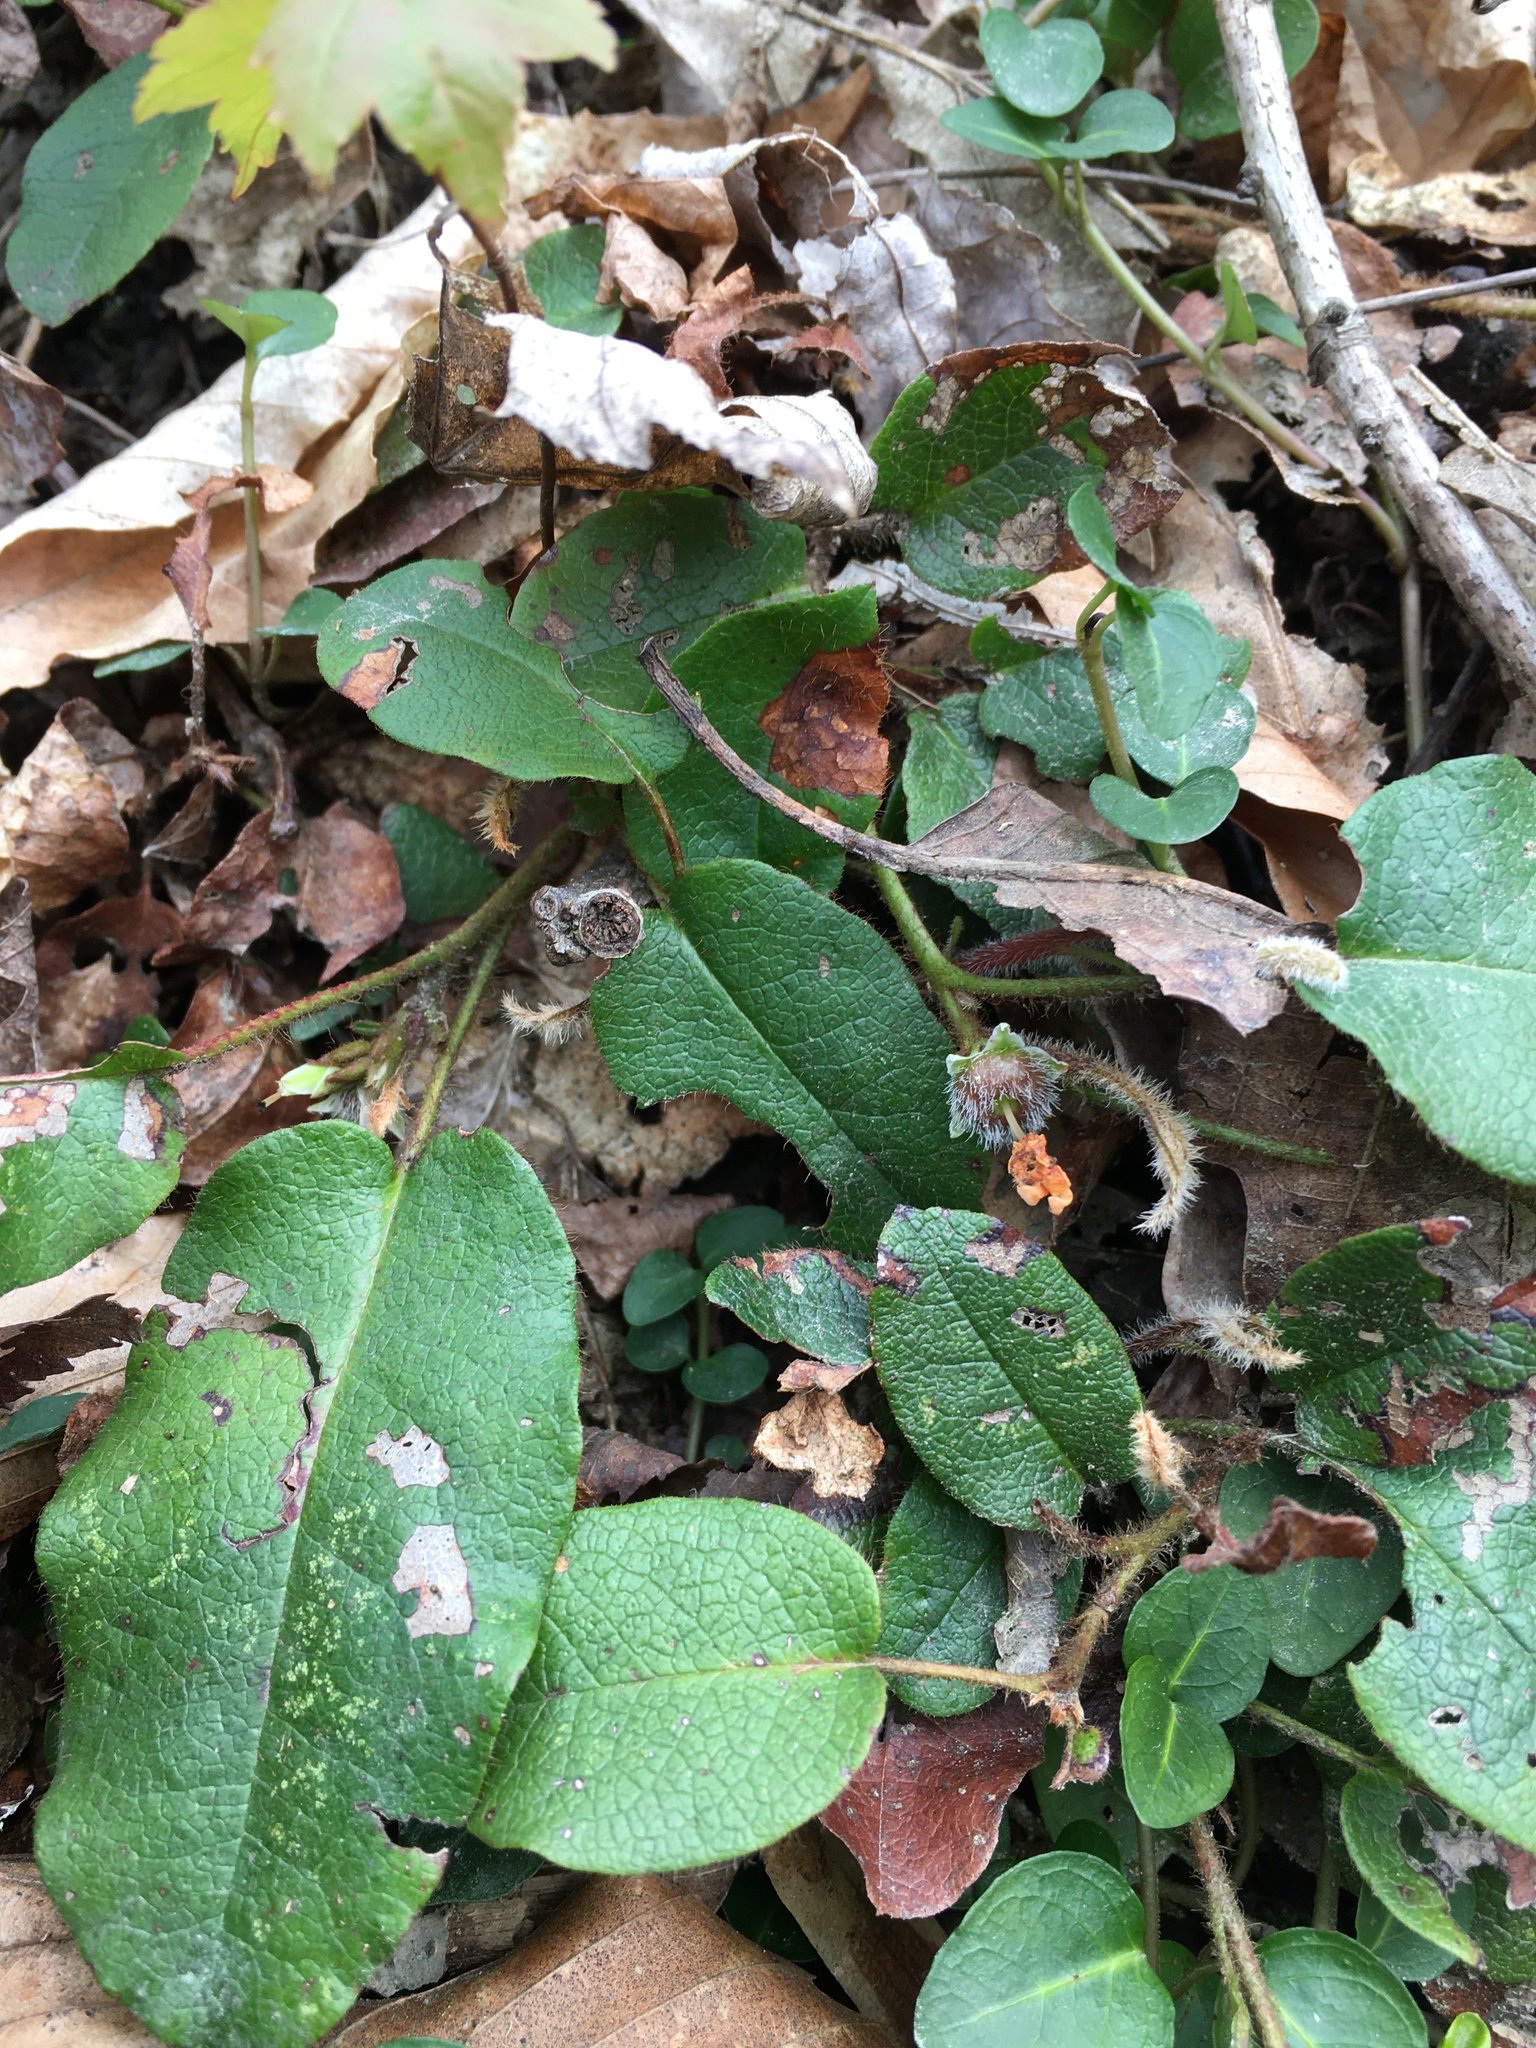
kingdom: Plantae
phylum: Tracheophyta
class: Magnoliopsida
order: Ericales
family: Ericaceae
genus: Epigaea
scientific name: Epigaea repens
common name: Gravelroot
